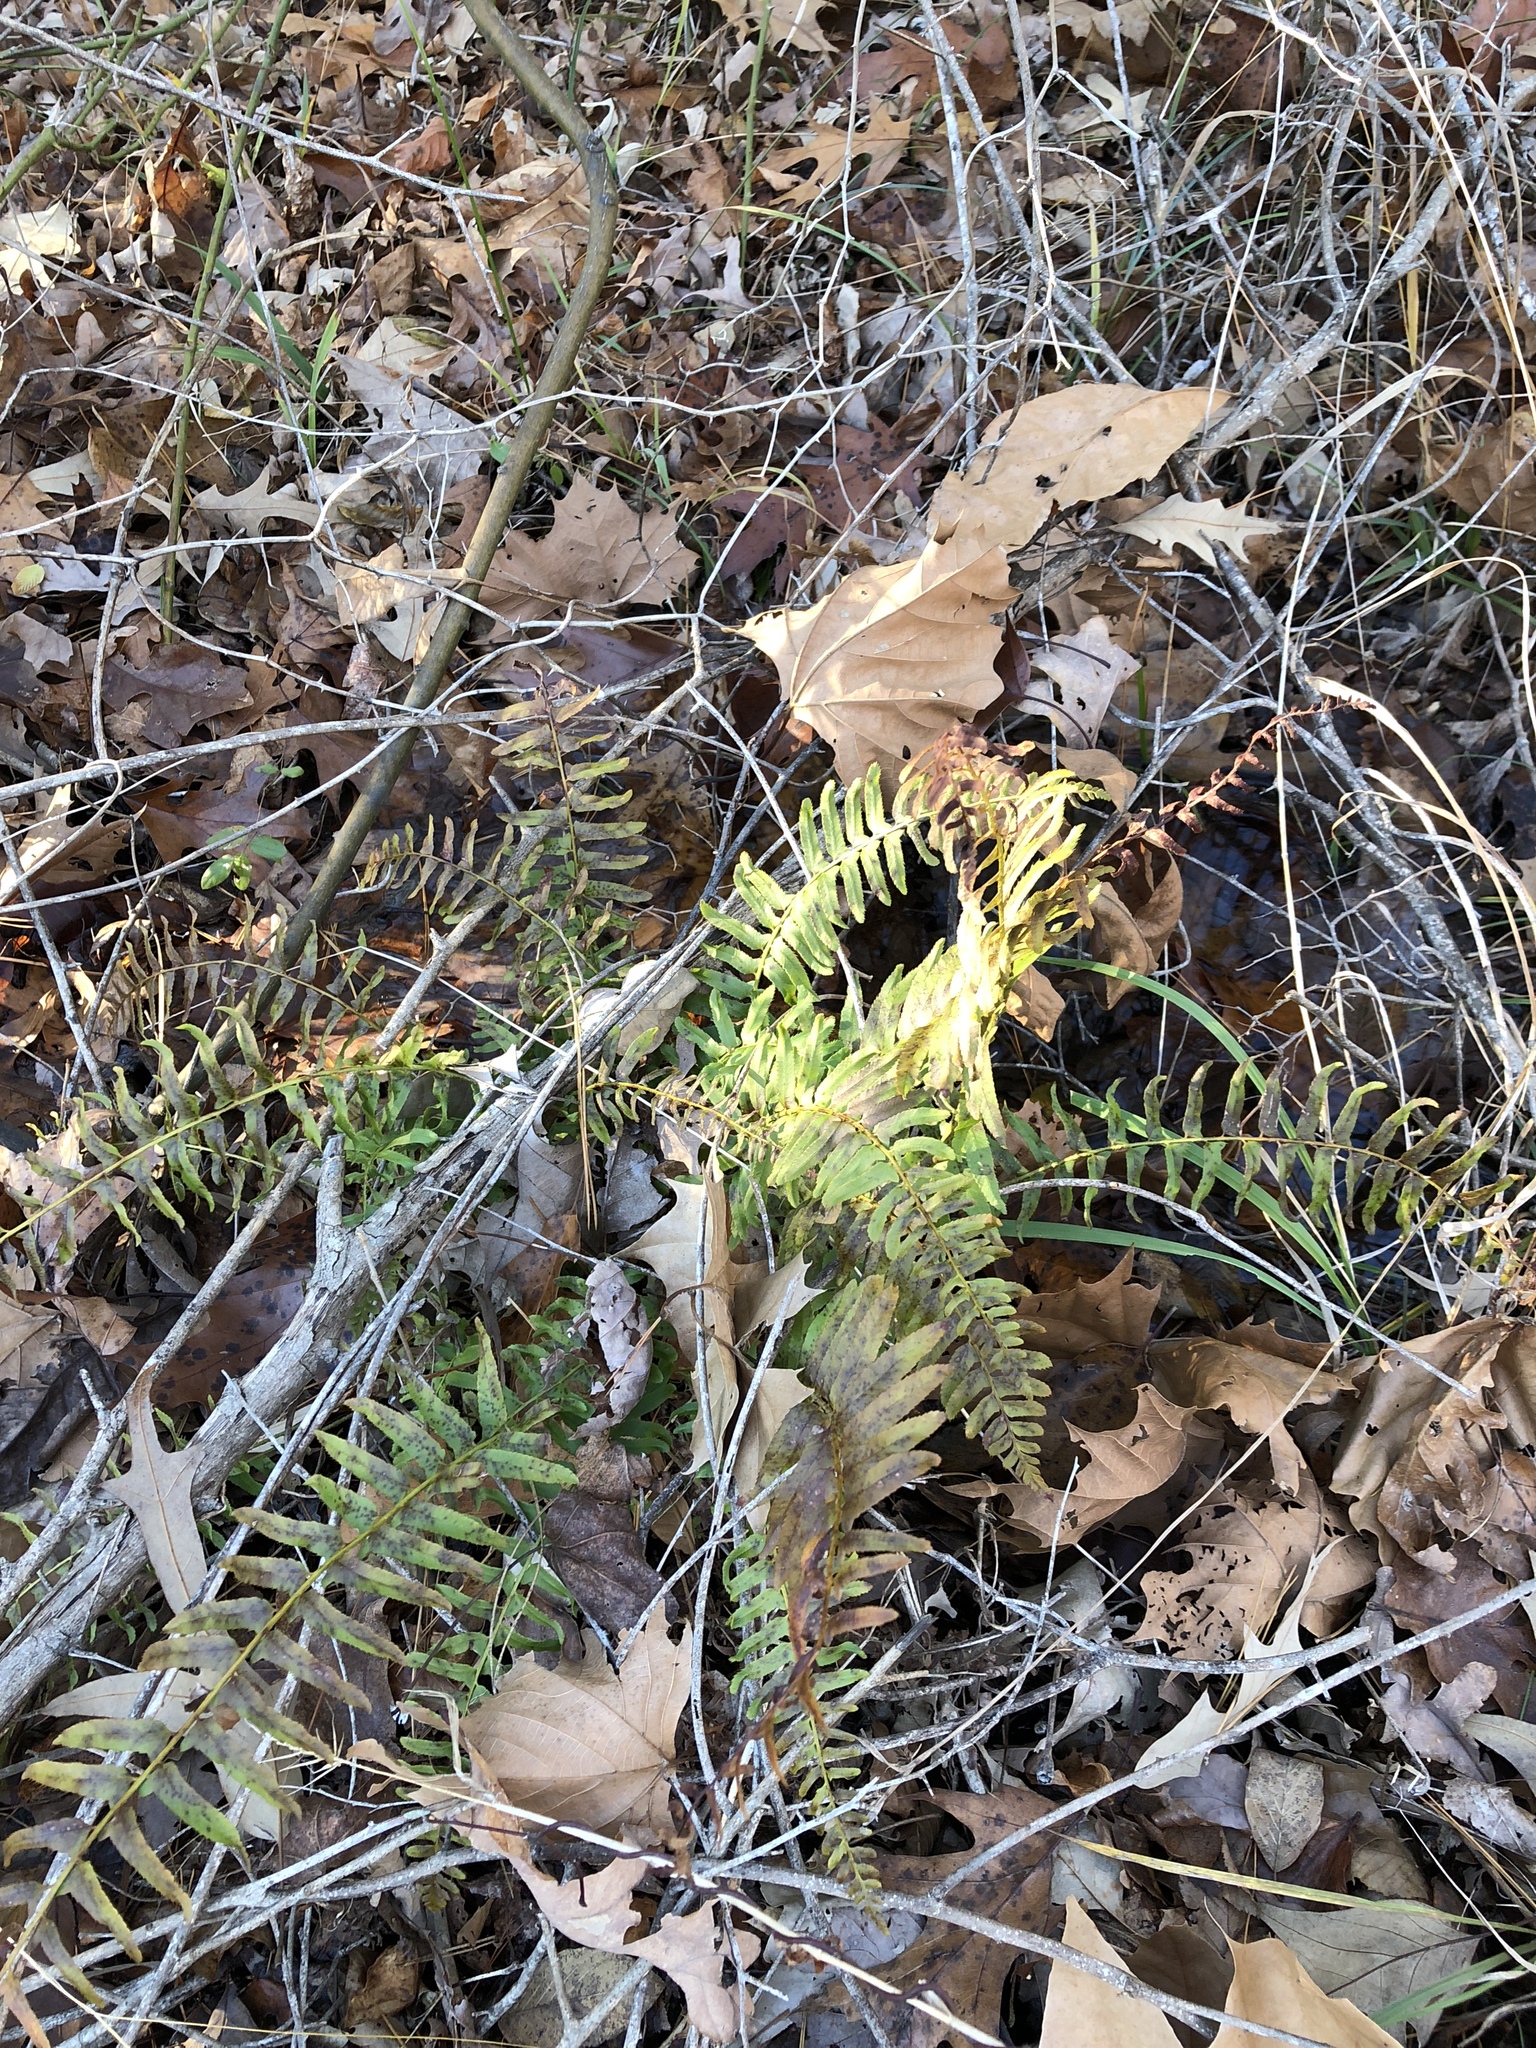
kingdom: Plantae
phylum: Tracheophyta
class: Polypodiopsida
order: Polypodiales
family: Dryopteridaceae
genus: Polystichum
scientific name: Polystichum acrostichoides
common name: Christmas fern
